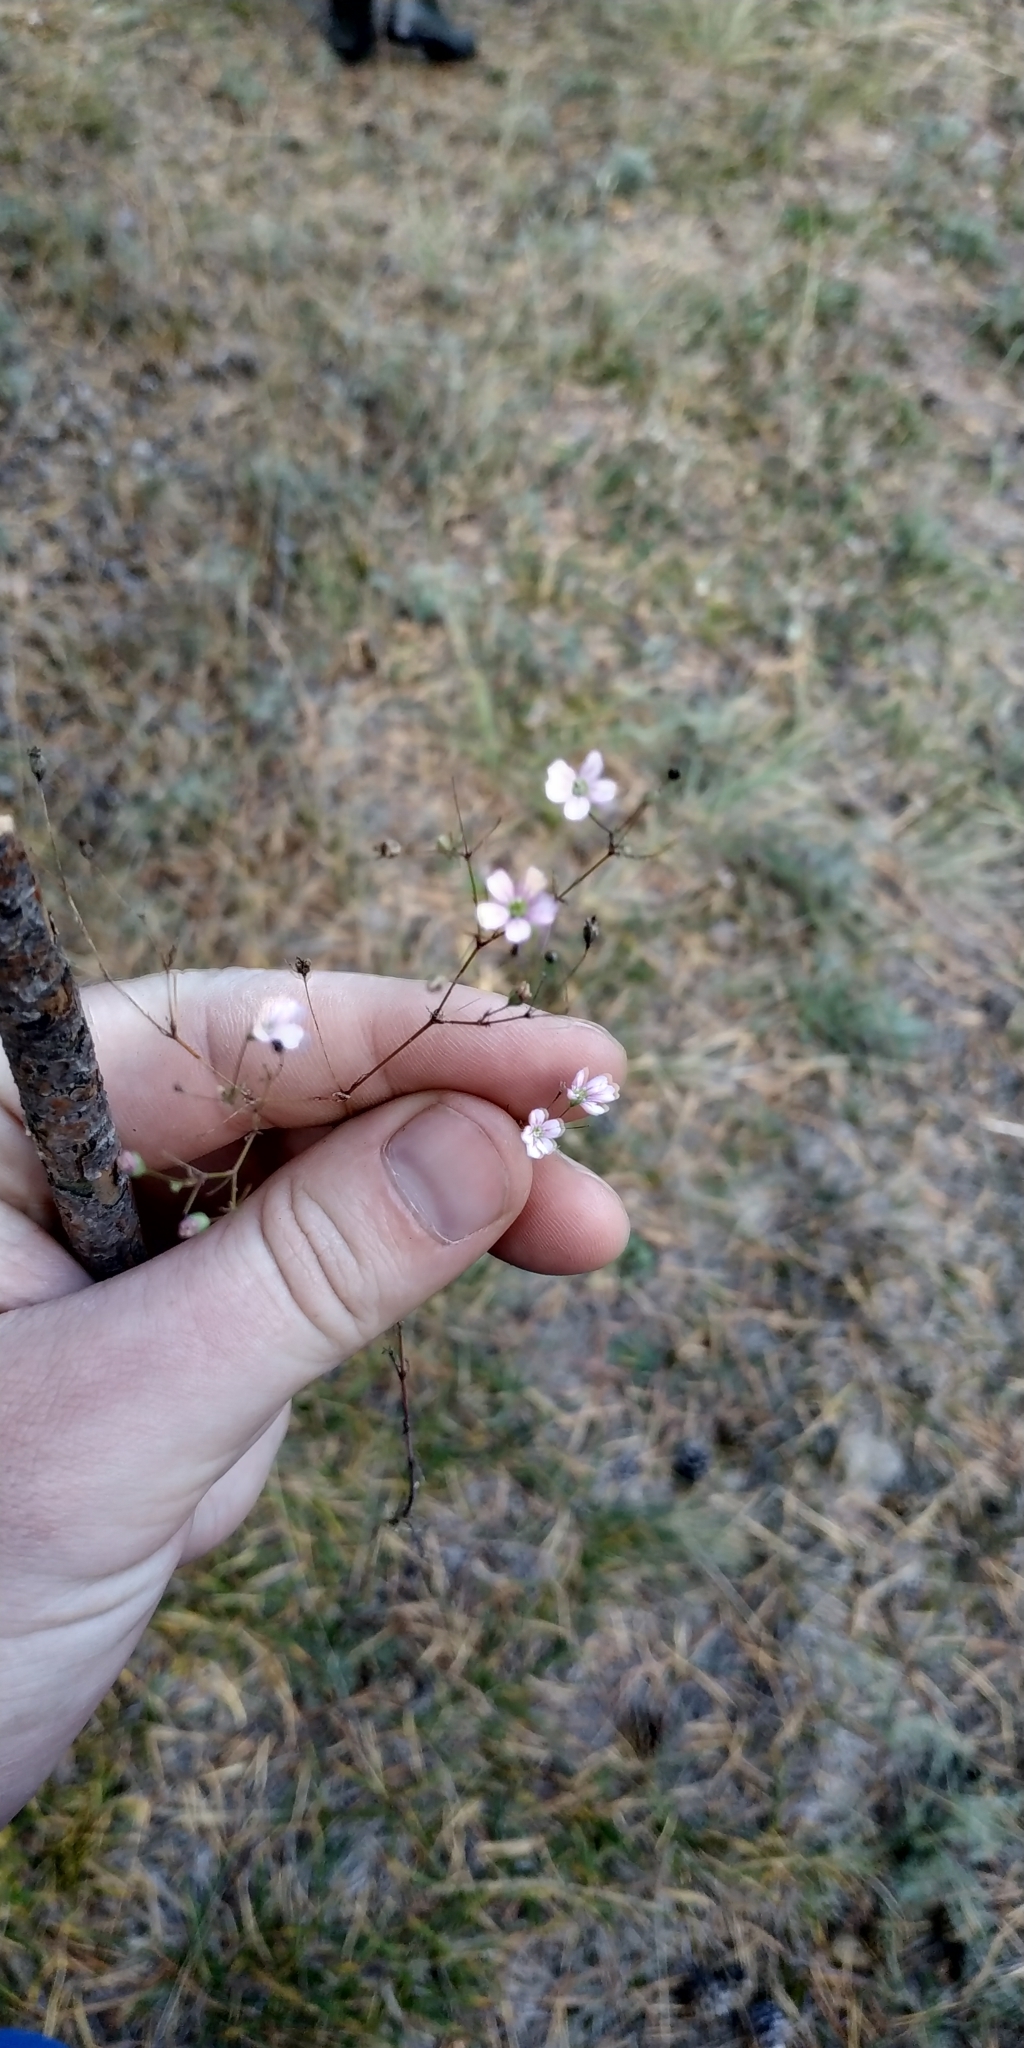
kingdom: Plantae
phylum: Tracheophyta
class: Magnoliopsida
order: Caryophyllales
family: Caryophyllaceae
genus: Psammophiliella
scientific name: Psammophiliella muralis
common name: Cushion baby's-breath
